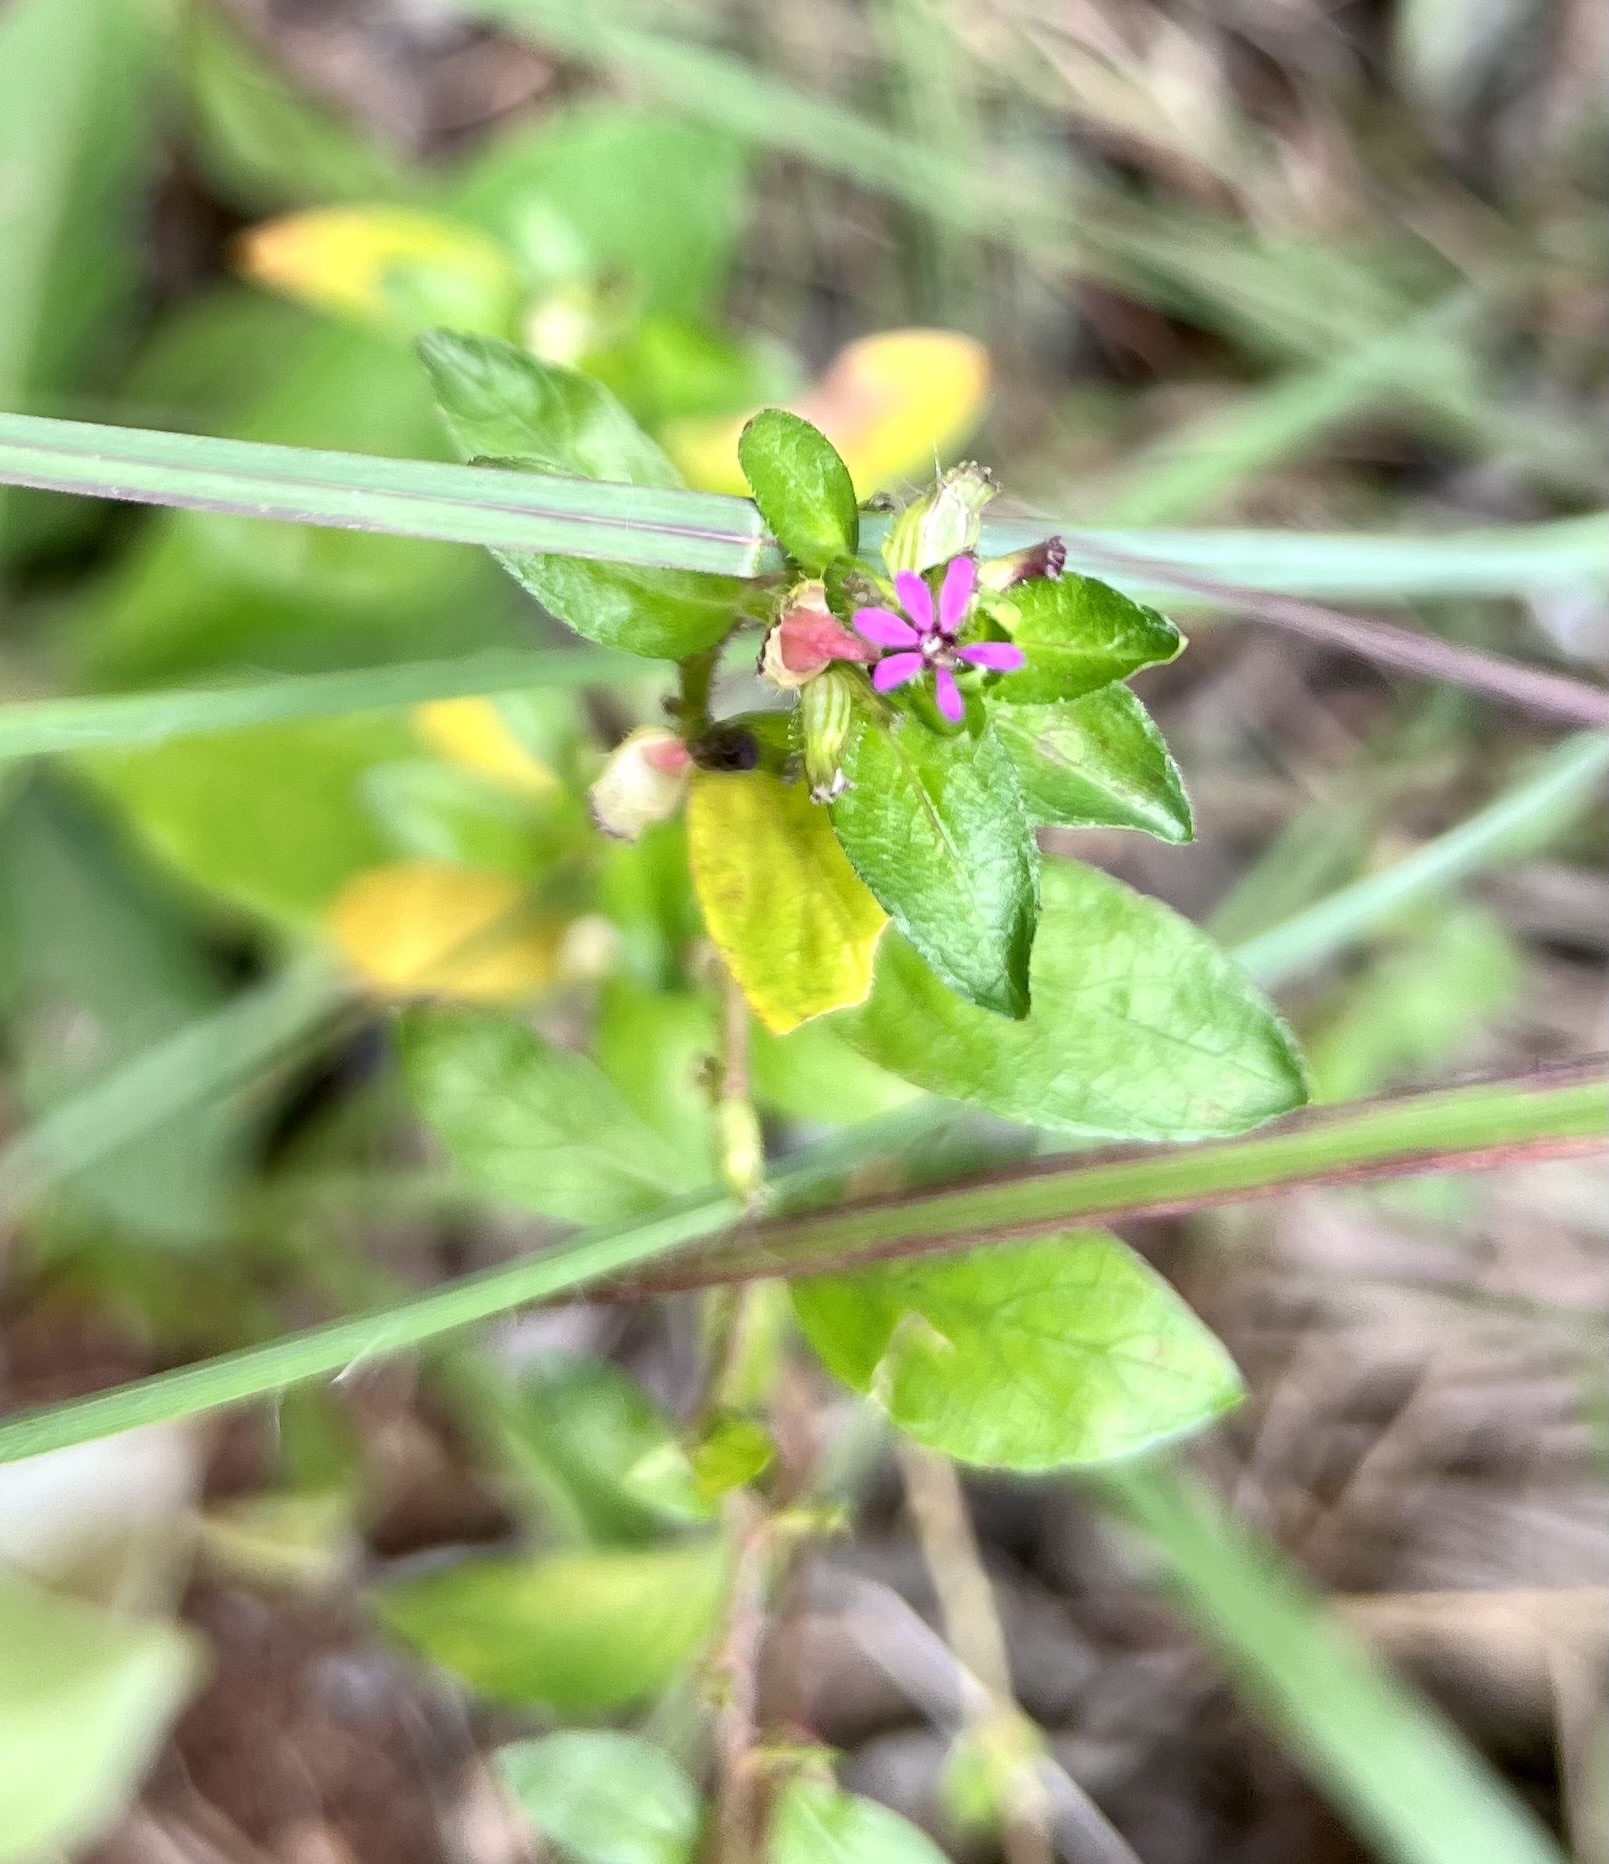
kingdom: Plantae
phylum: Tracheophyta
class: Magnoliopsida
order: Myrtales
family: Lythraceae
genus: Cuphea
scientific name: Cuphea carthagenensis
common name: Colombian waxweed
